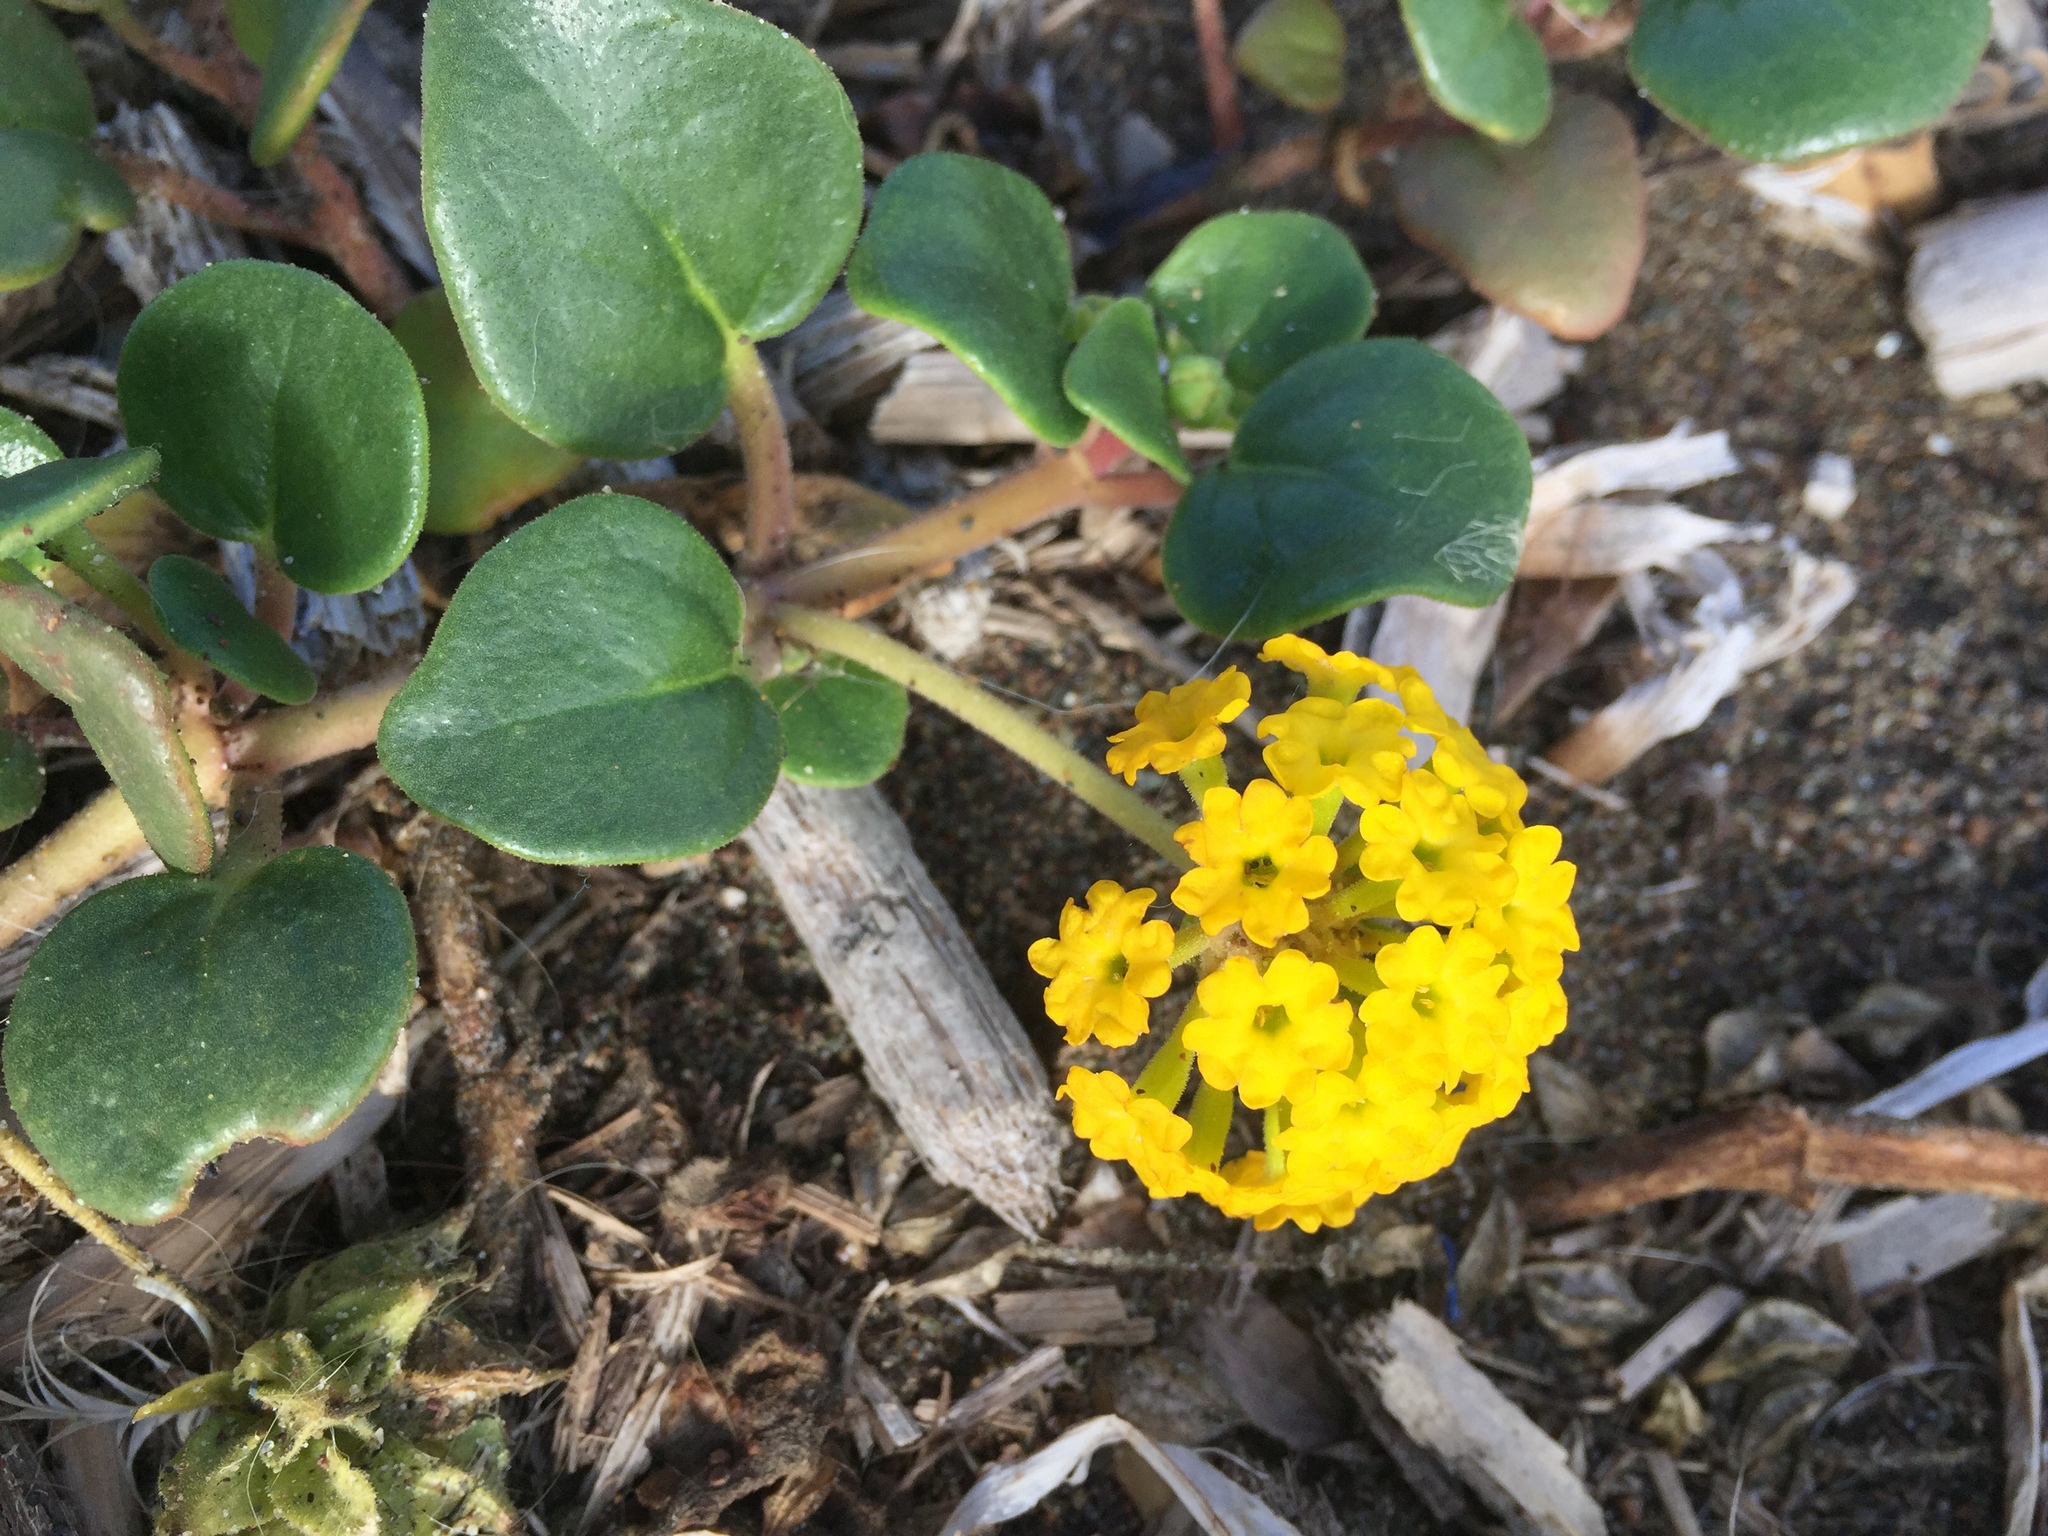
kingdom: Plantae
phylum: Tracheophyta
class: Magnoliopsida
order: Caryophyllales
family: Nyctaginaceae
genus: Abronia
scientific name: Abronia latifolia
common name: Yellow sand-verbena
